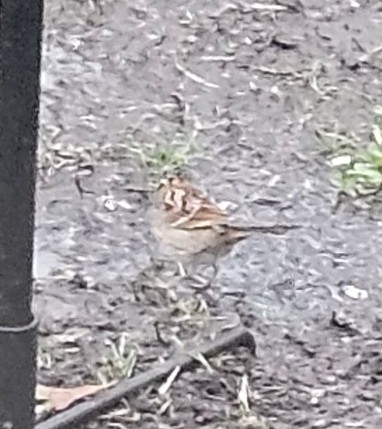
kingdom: Animalia
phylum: Chordata
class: Aves
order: Passeriformes
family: Passerellidae
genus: Zonotrichia
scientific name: Zonotrichia albicollis
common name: White-throated sparrow
